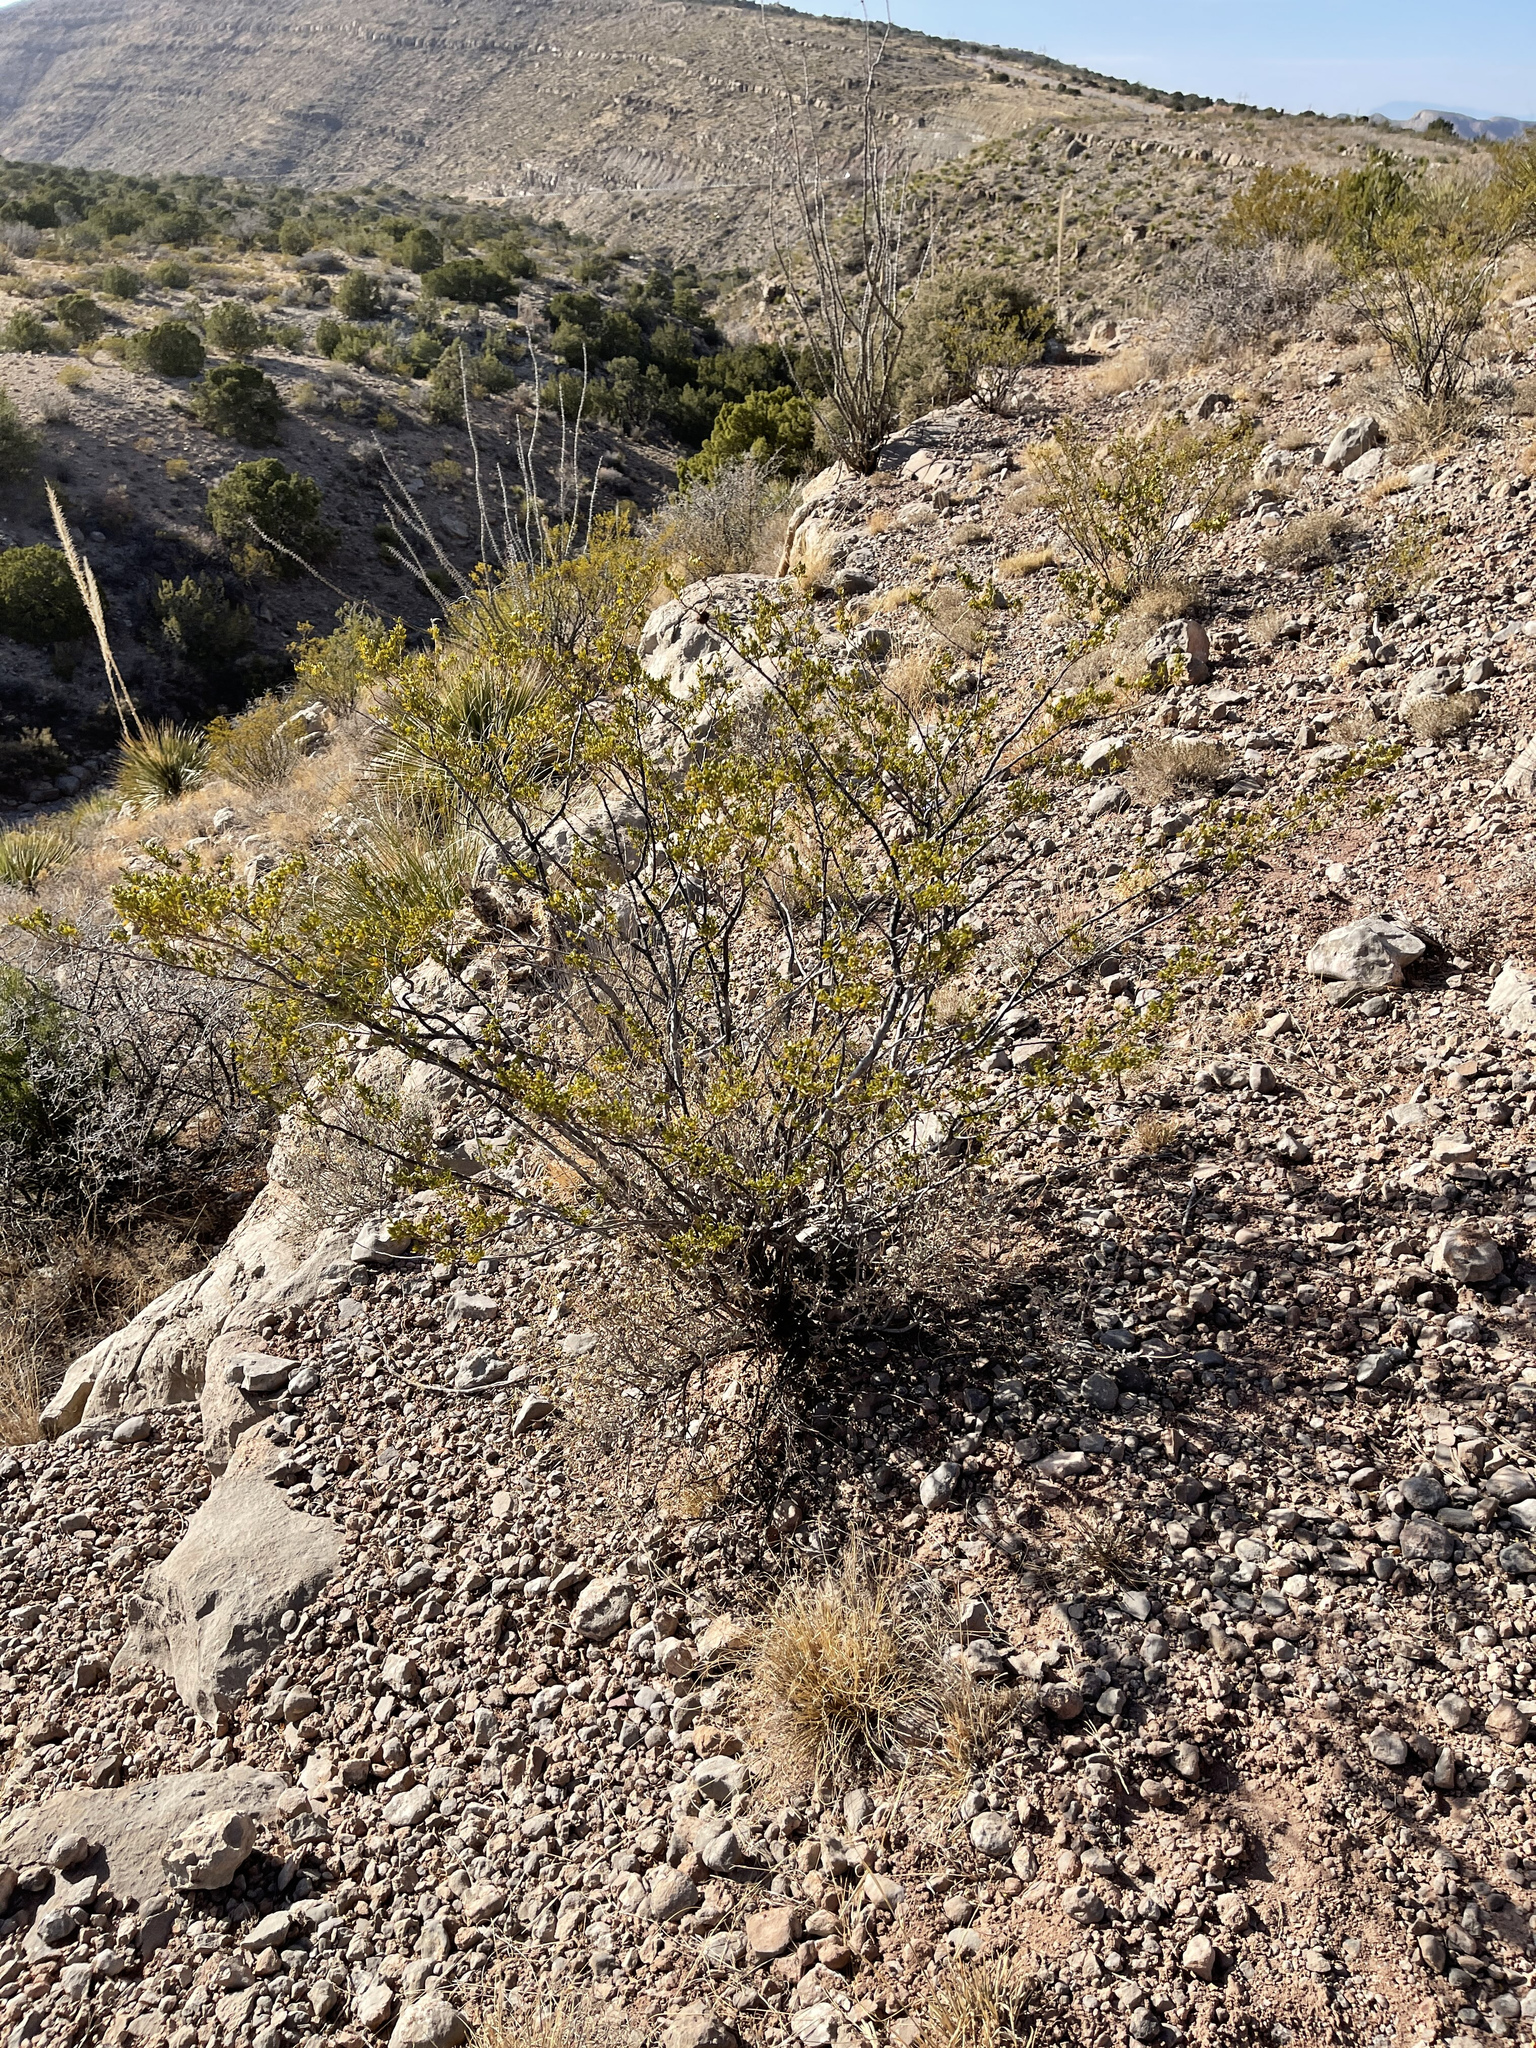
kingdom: Plantae
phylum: Tracheophyta
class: Magnoliopsida
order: Zygophyllales
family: Zygophyllaceae
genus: Larrea
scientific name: Larrea tridentata
